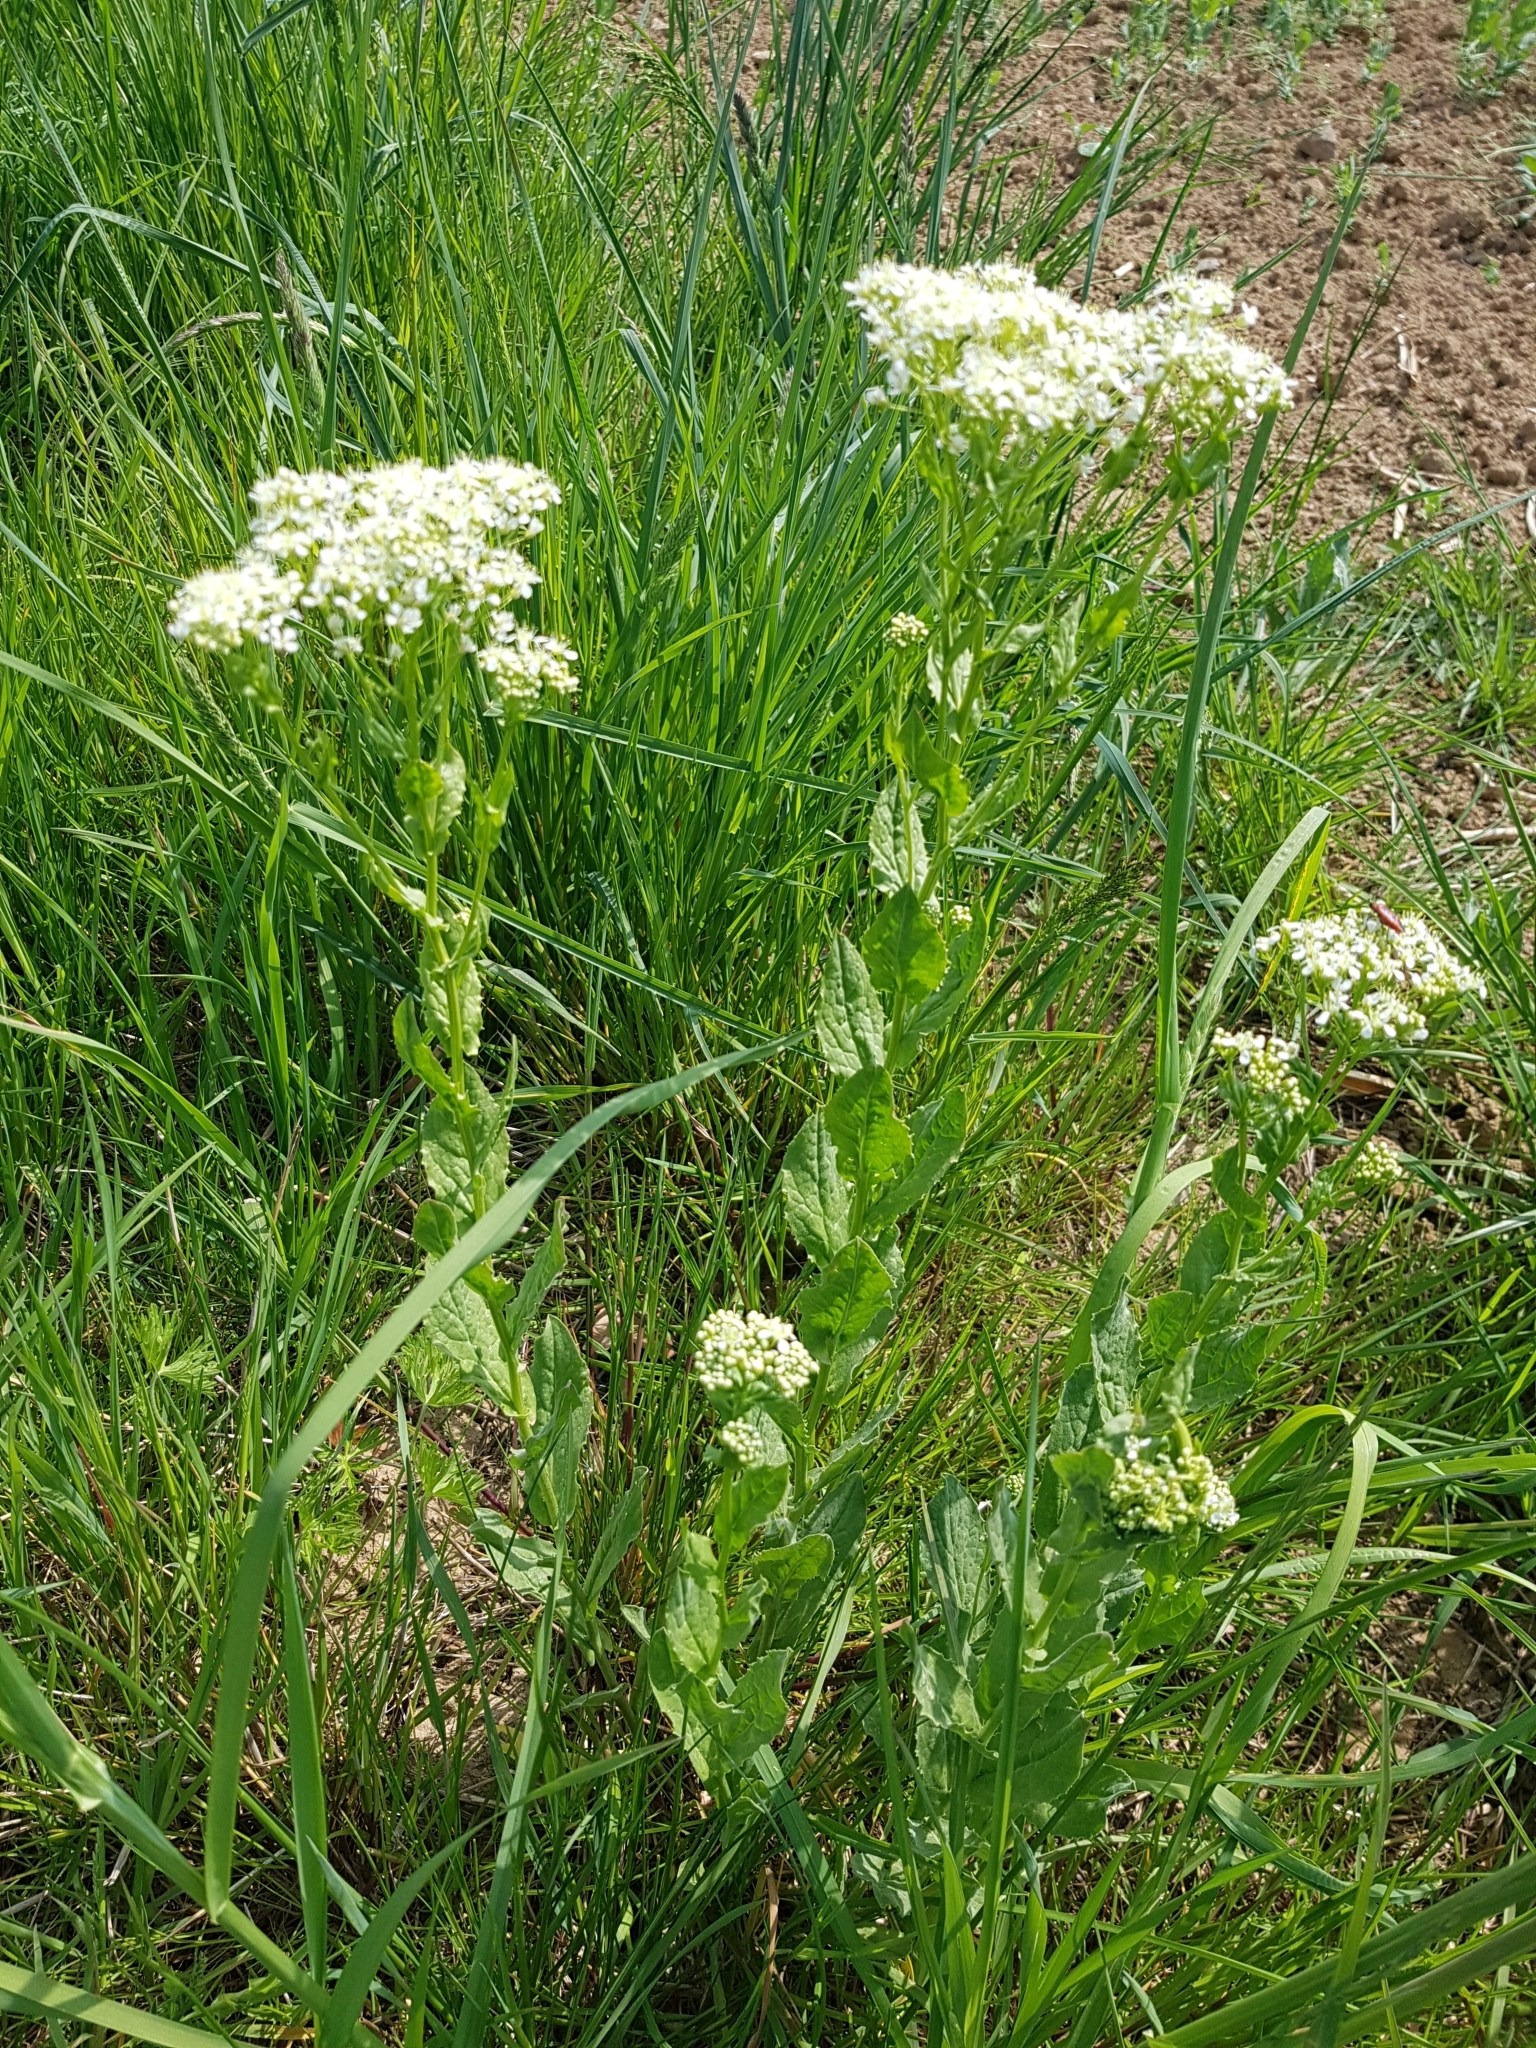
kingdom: Plantae
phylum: Tracheophyta
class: Magnoliopsida
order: Brassicales
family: Brassicaceae
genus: Lepidium
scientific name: Lepidium draba
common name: Hoary cress
